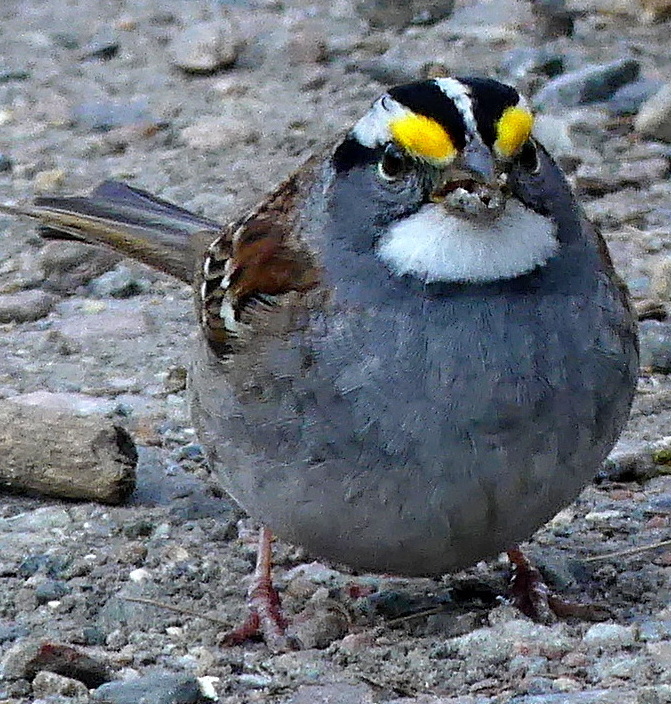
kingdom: Animalia
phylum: Chordata
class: Aves
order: Passeriformes
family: Passerellidae
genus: Zonotrichia
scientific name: Zonotrichia albicollis
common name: White-throated sparrow
